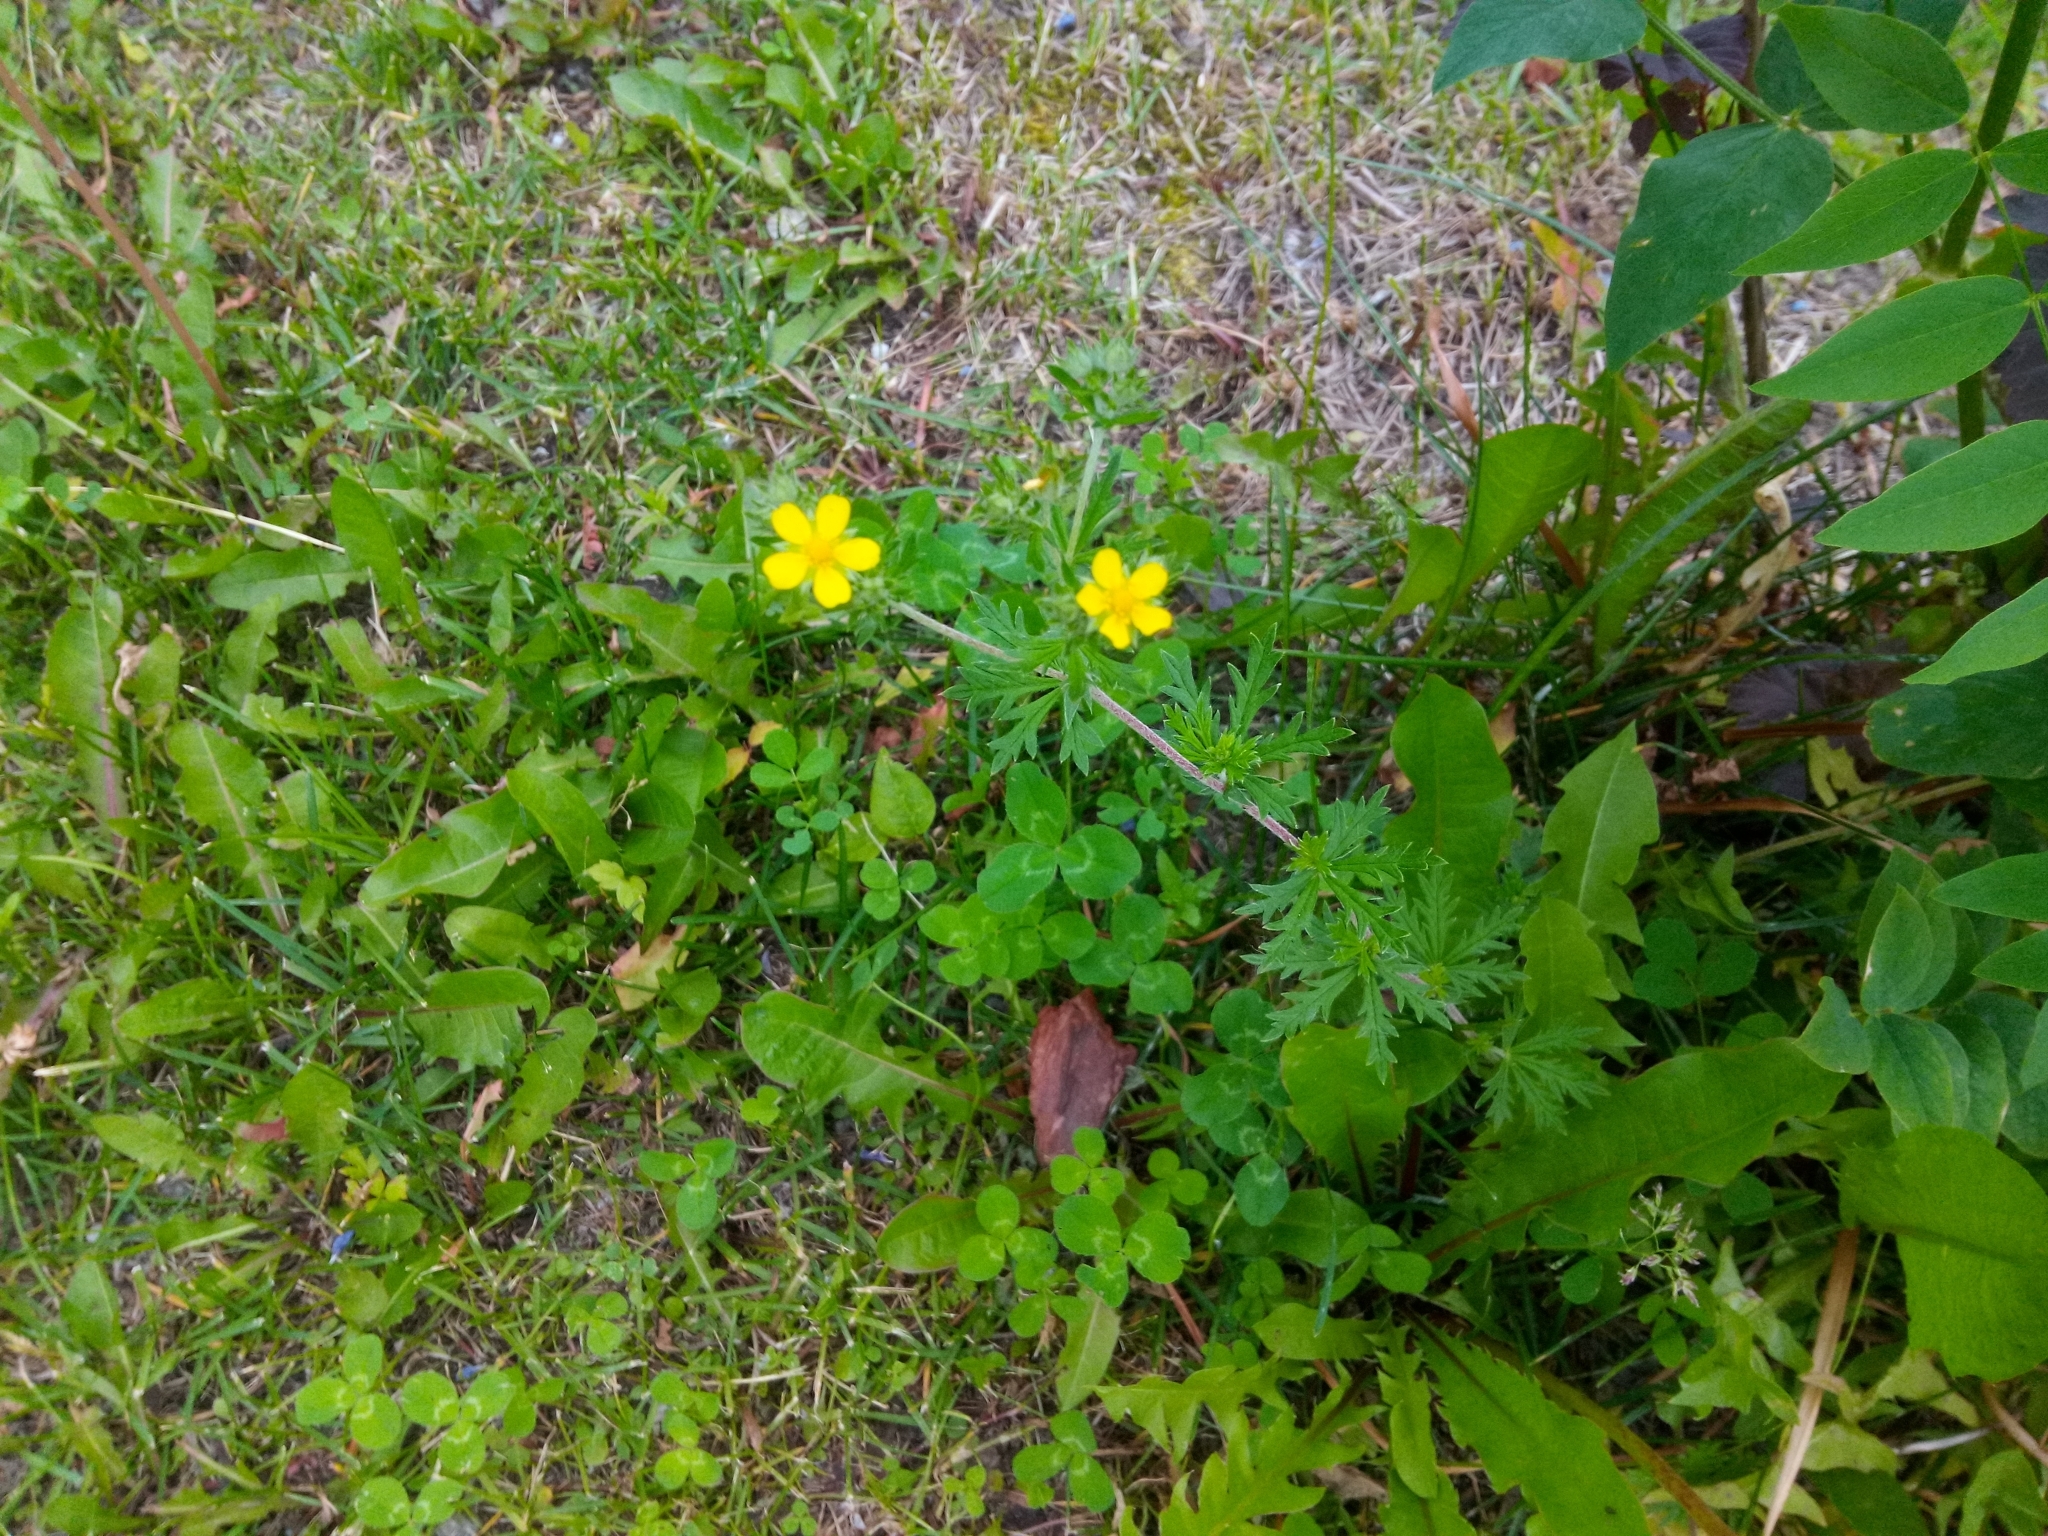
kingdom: Plantae
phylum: Tracheophyta
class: Magnoliopsida
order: Rosales
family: Rosaceae
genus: Potentilla
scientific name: Potentilla argentea
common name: Hoary cinquefoil
